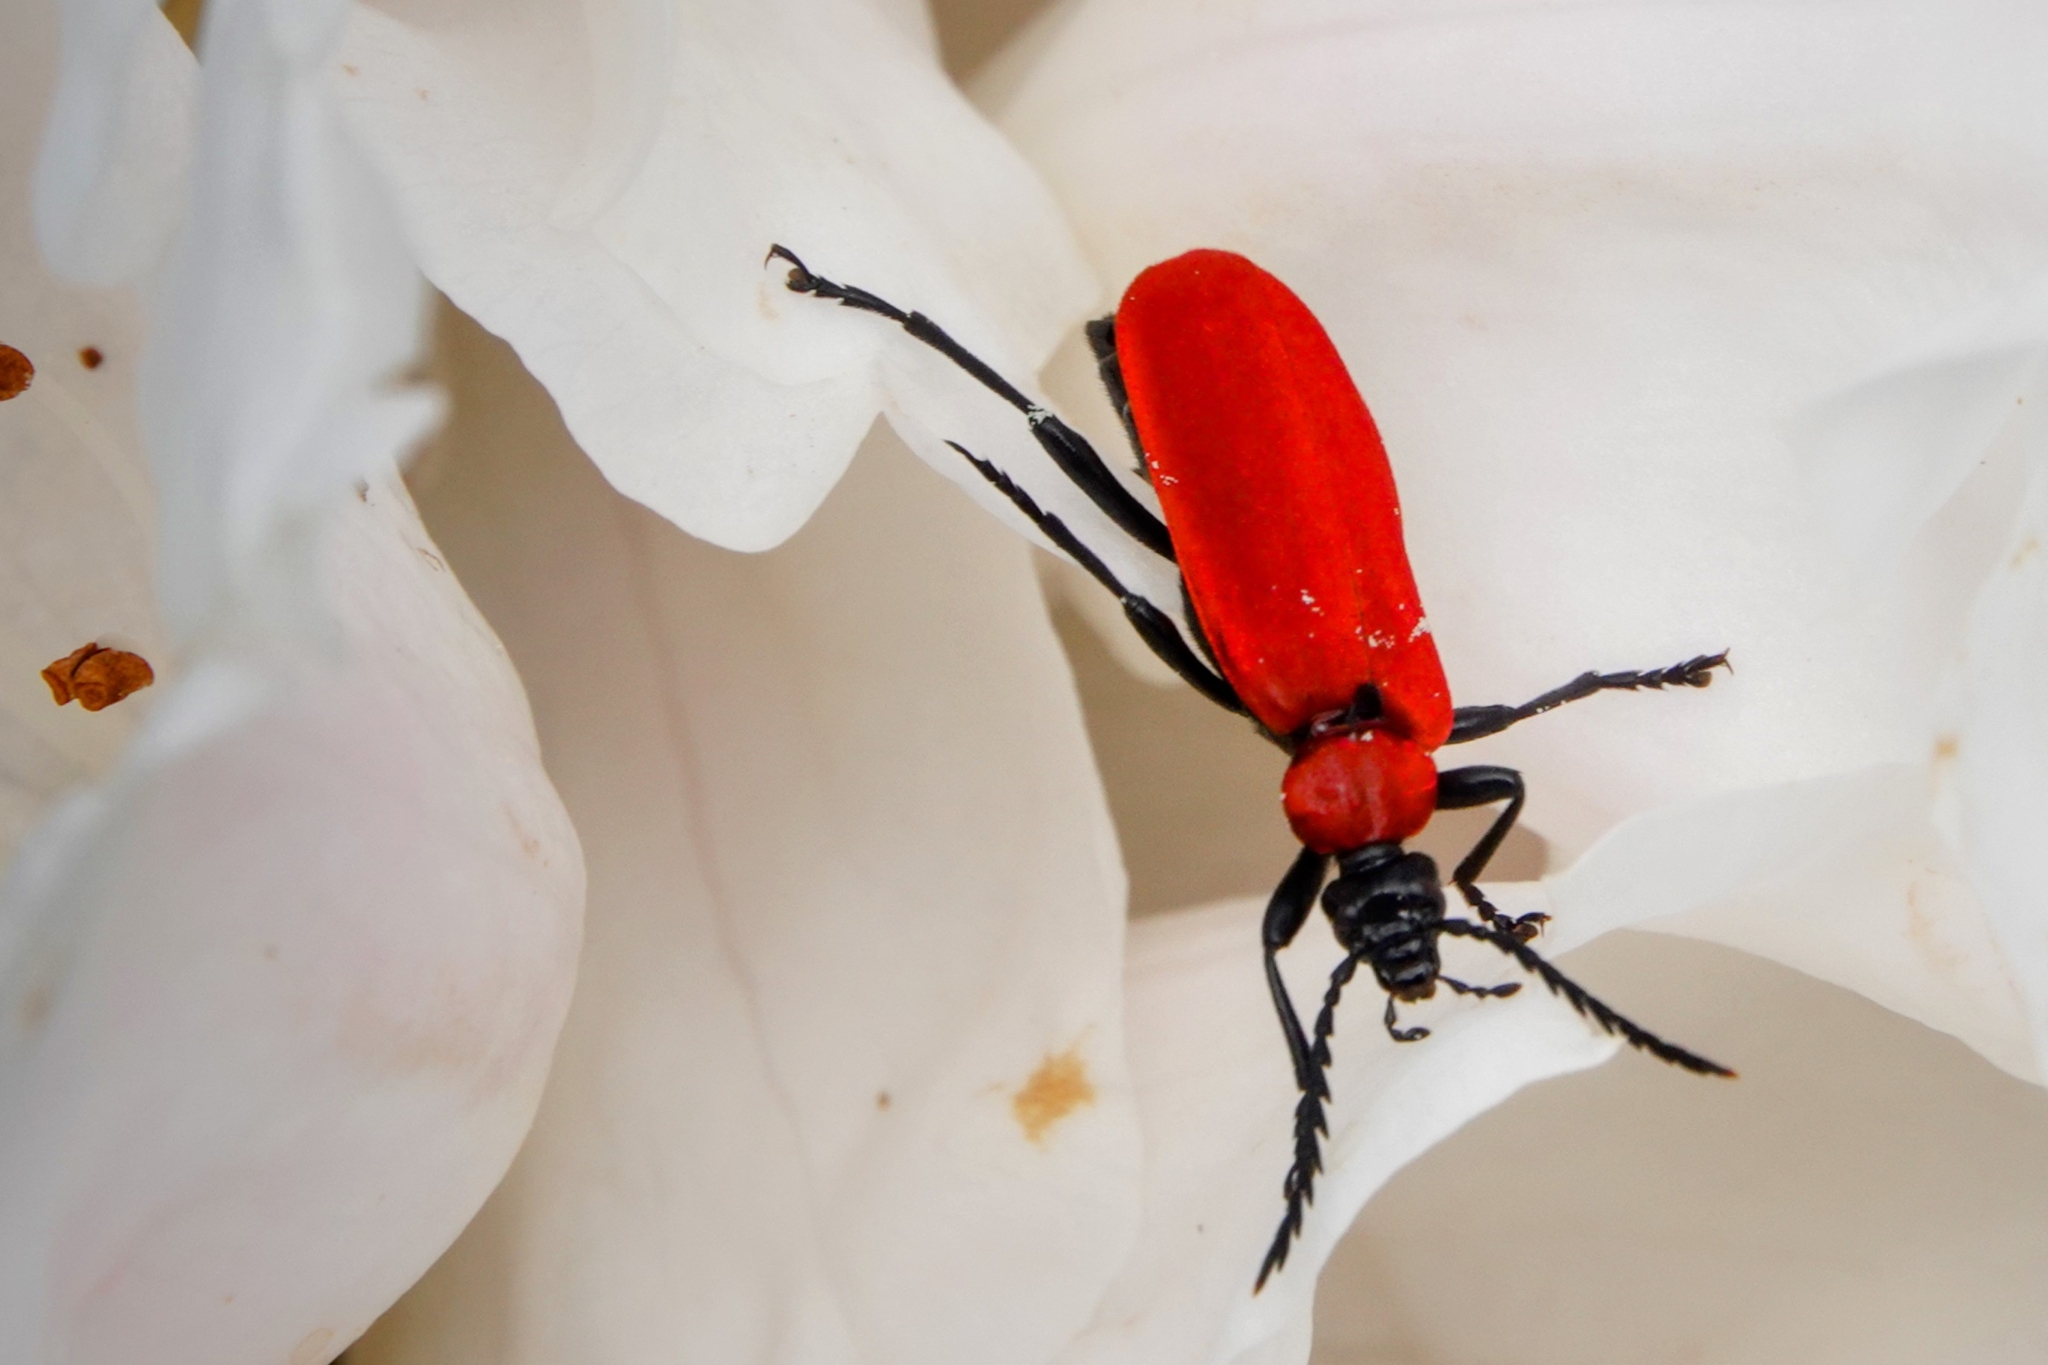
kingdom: Animalia
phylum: Arthropoda
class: Insecta
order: Coleoptera
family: Pyrochroidae
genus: Pyrochroa
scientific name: Pyrochroa coccinea
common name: Black-headed cardinal beetle
